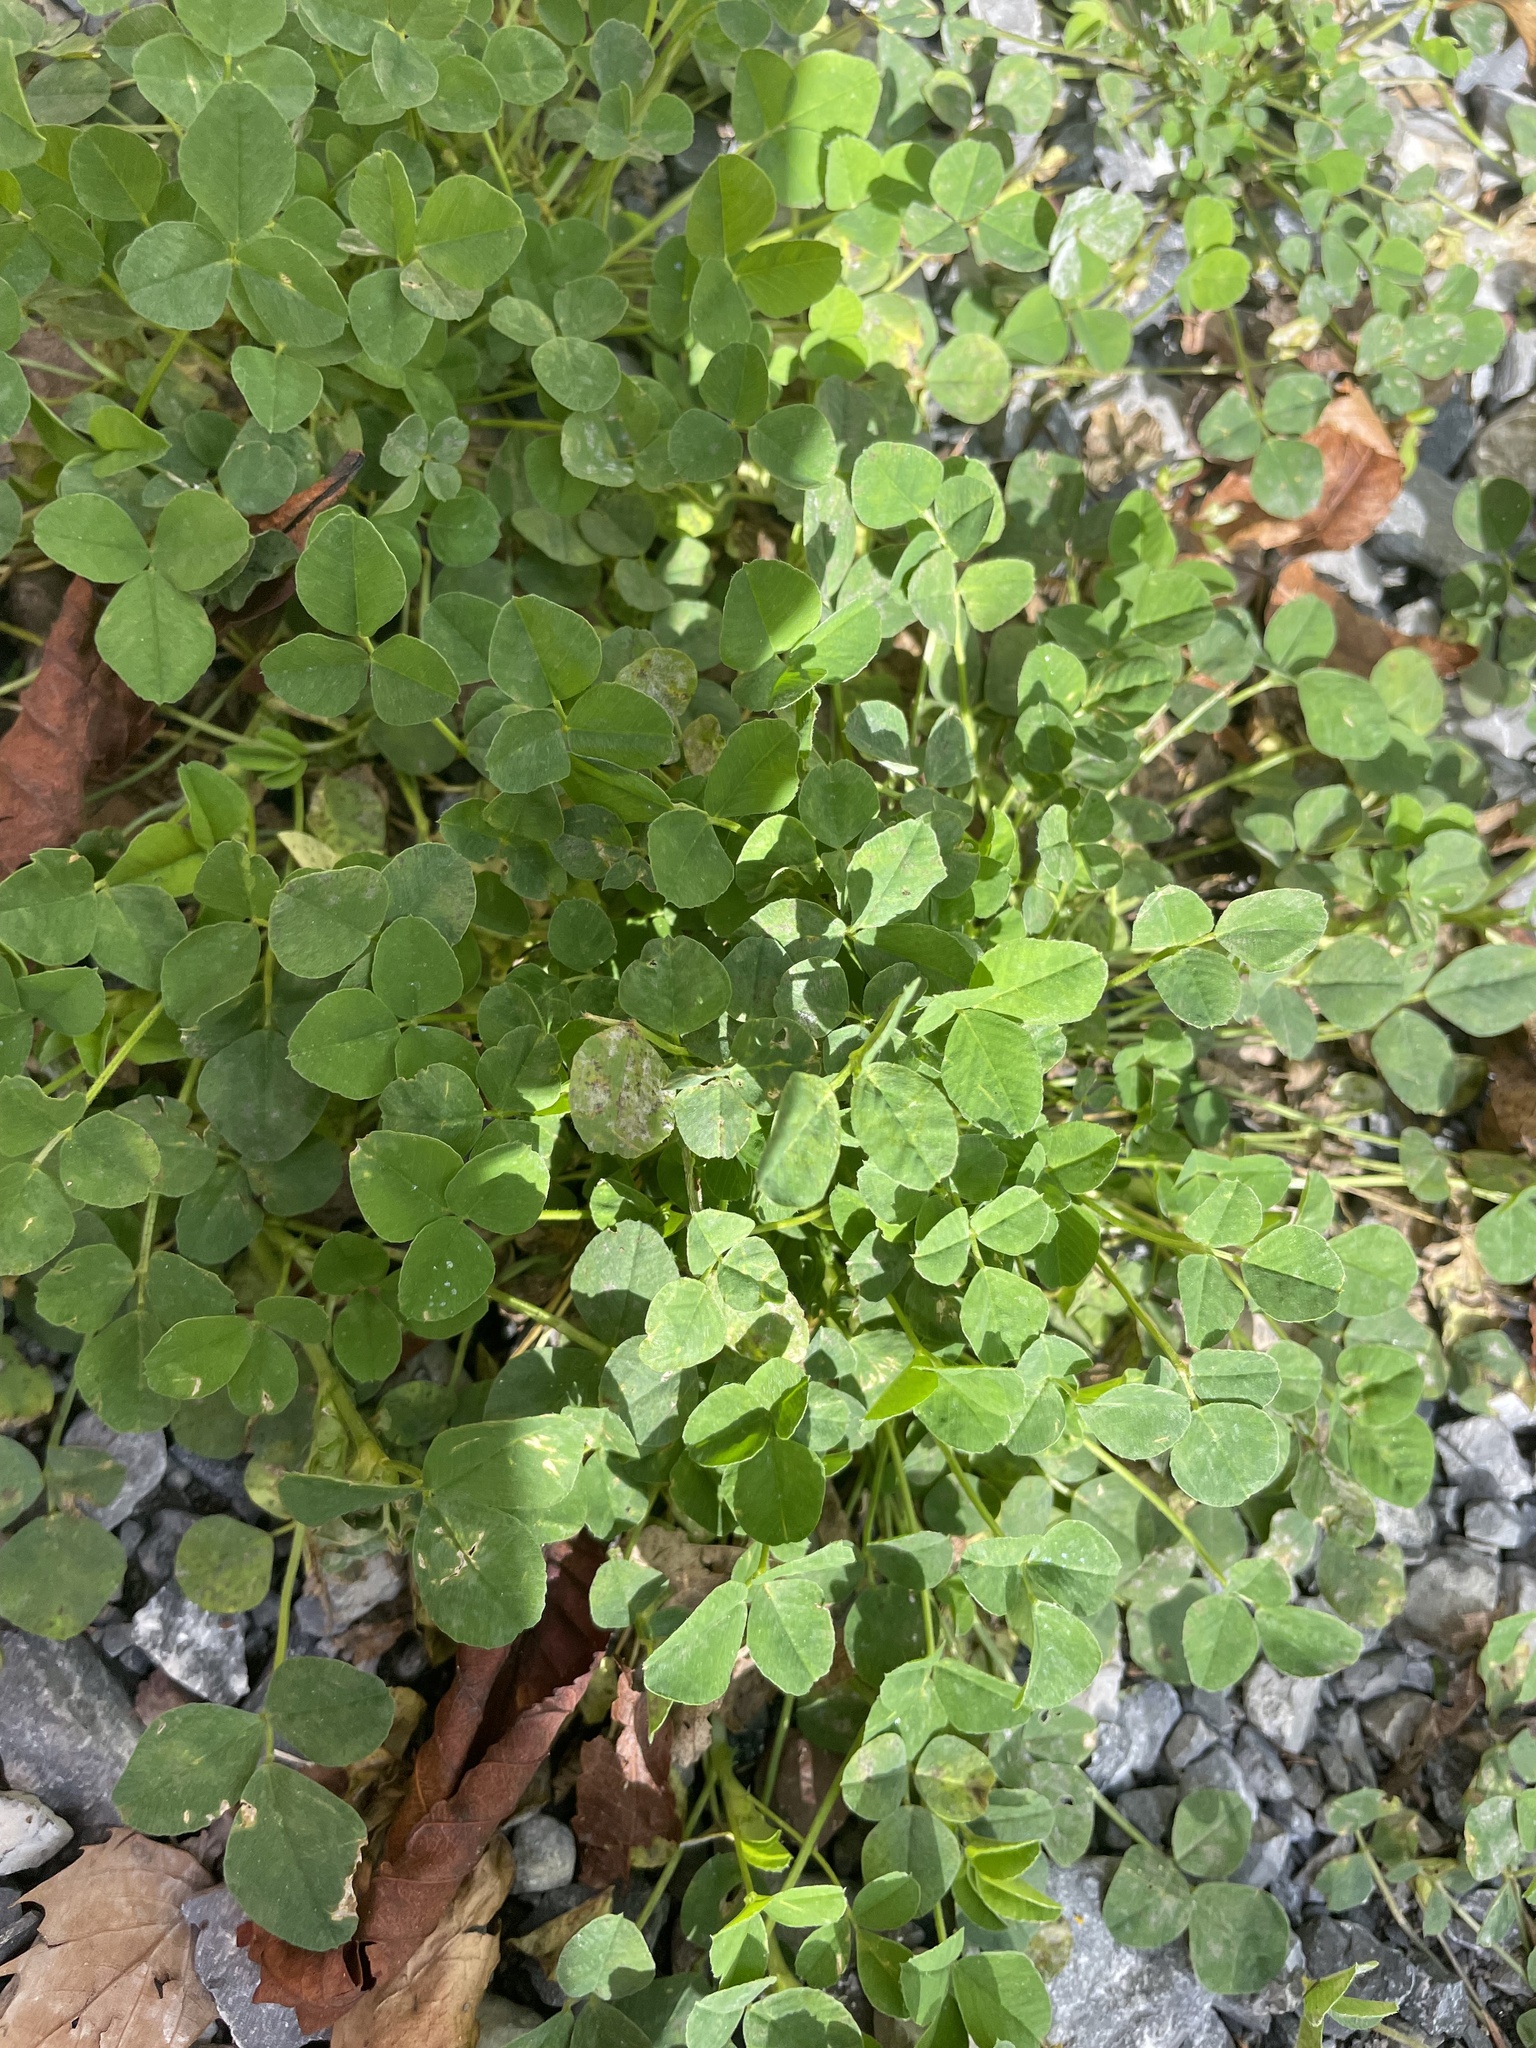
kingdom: Plantae
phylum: Tracheophyta
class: Magnoliopsida
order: Fabales
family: Fabaceae
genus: Medicago
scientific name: Medicago lupulina
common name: Black medick
